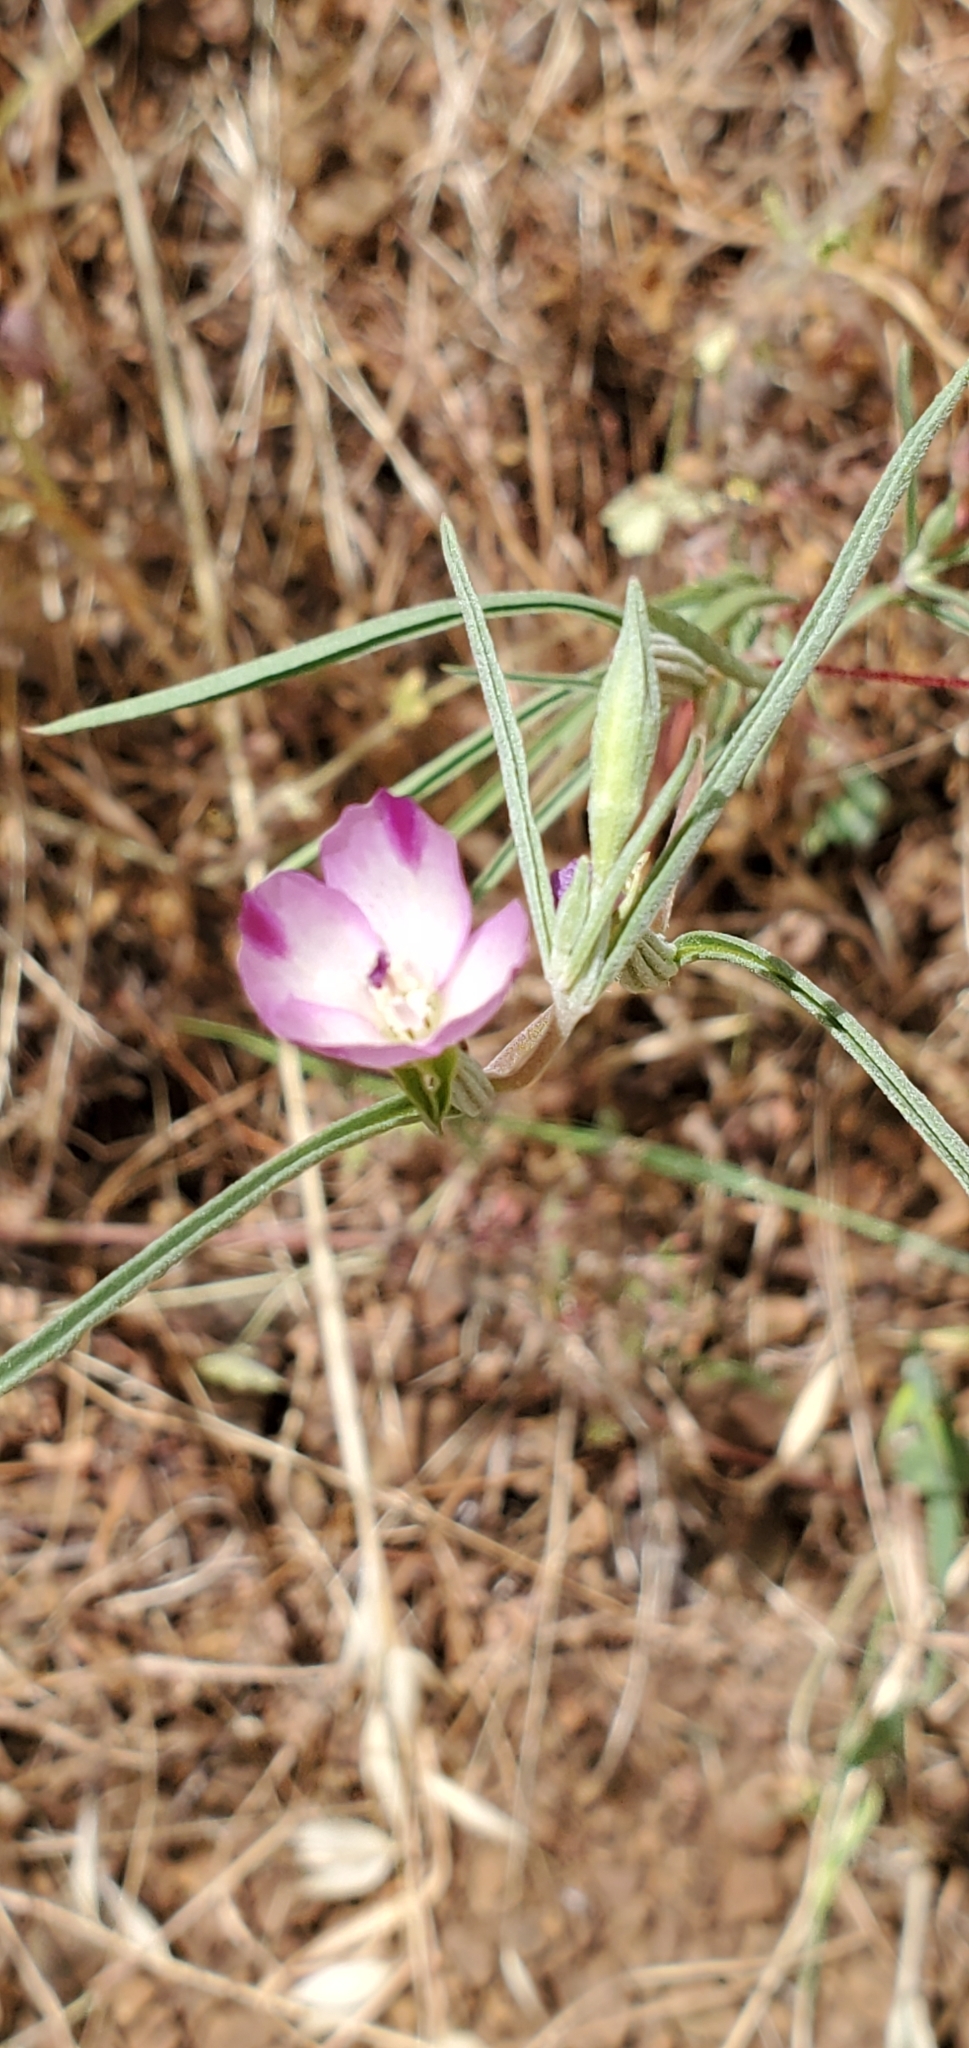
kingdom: Plantae
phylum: Tracheophyta
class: Magnoliopsida
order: Myrtales
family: Onagraceae
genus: Clarkia
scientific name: Clarkia purpurea
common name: Purple clarkia
